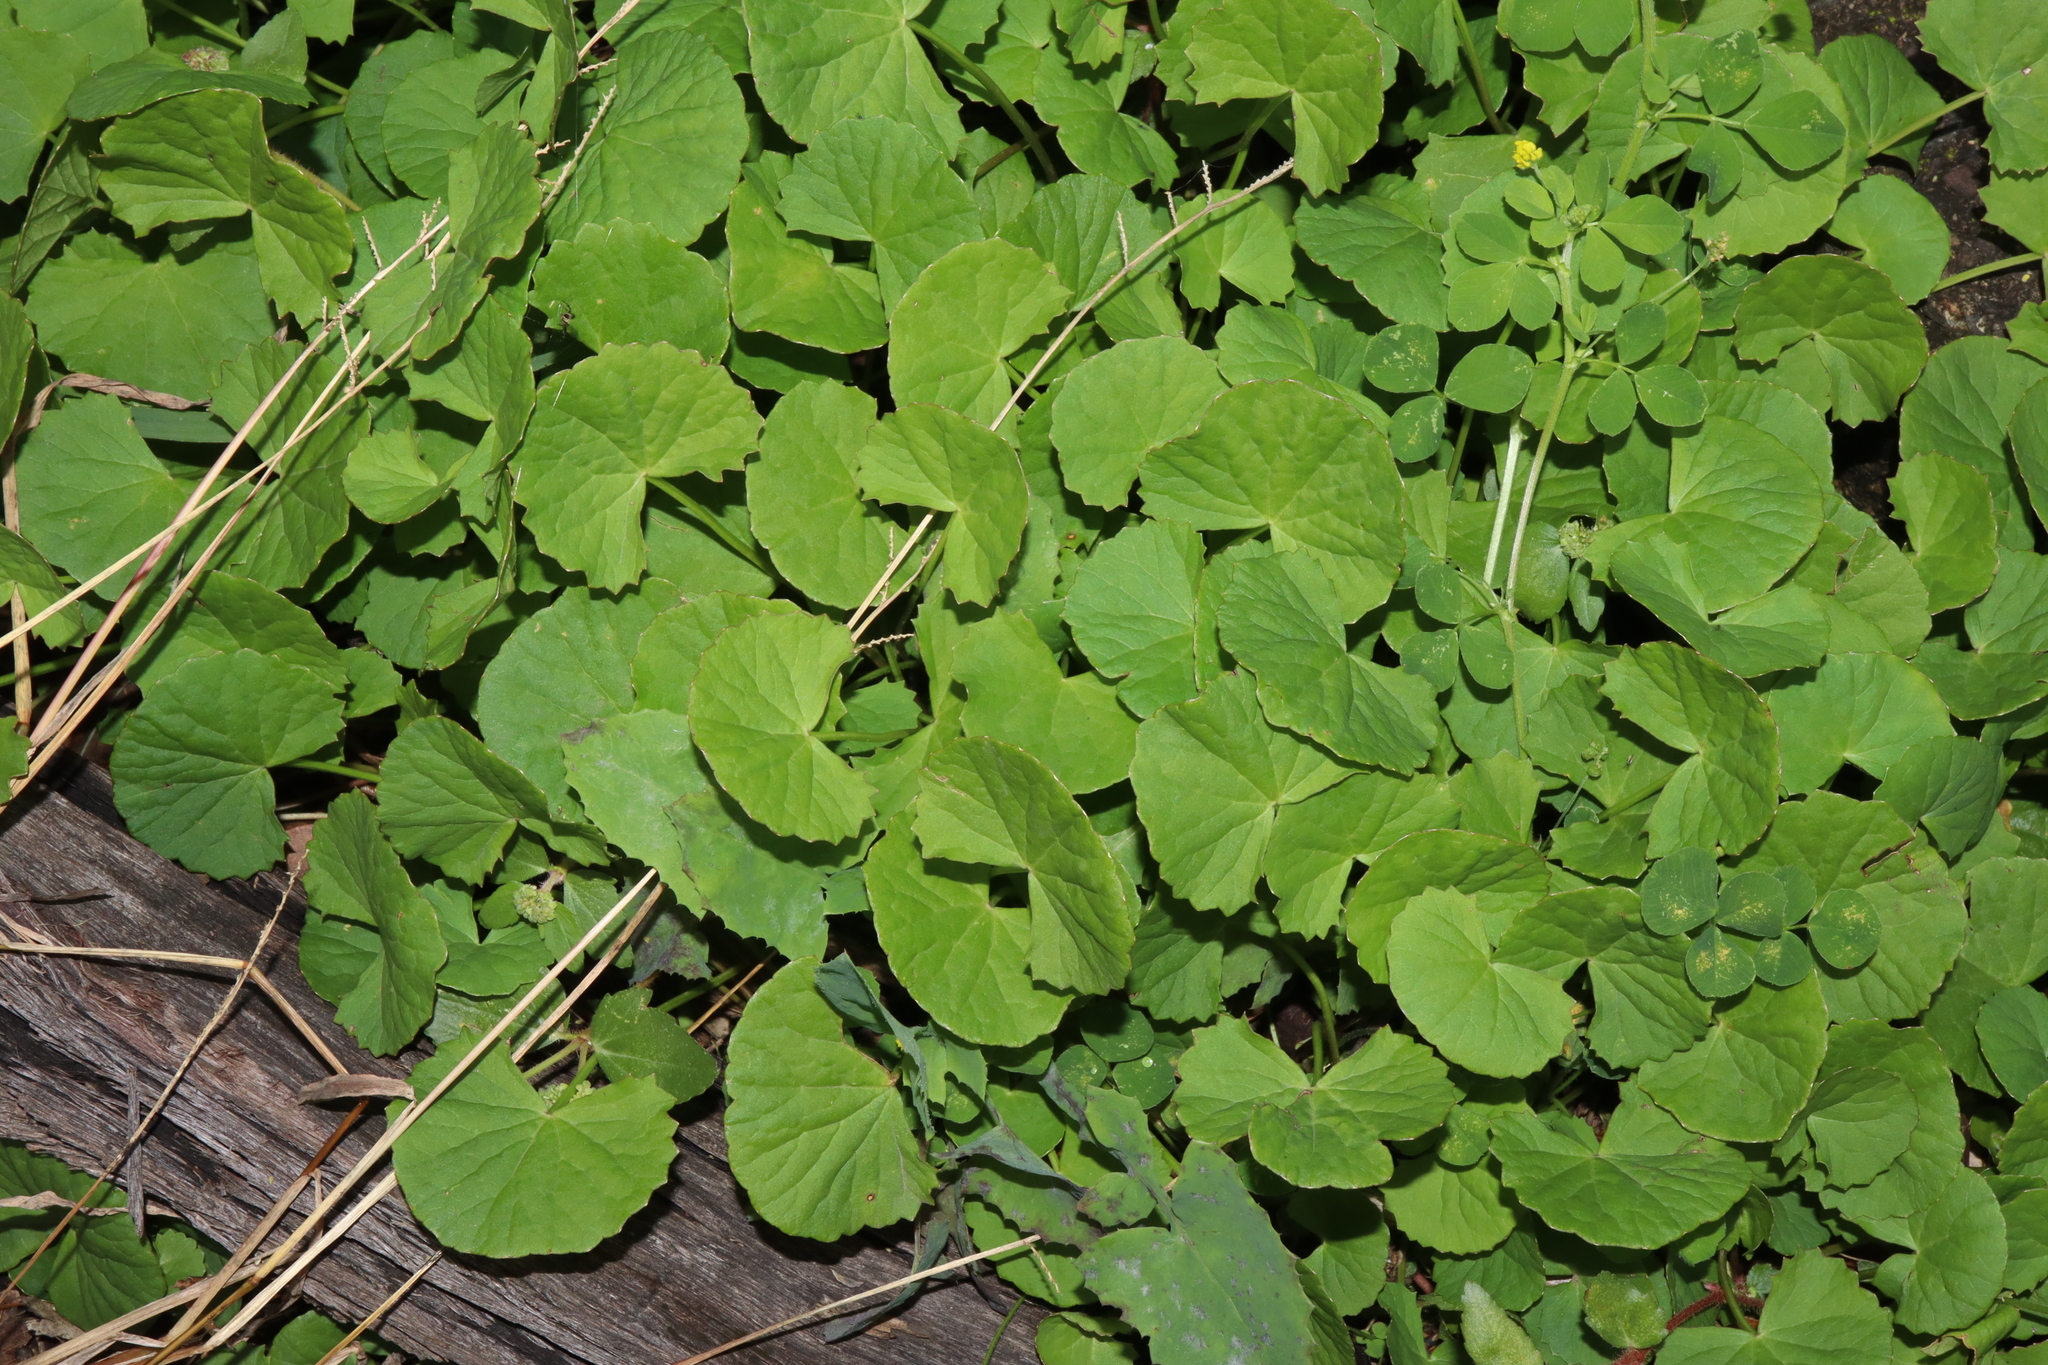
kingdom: Plantae
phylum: Tracheophyta
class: Magnoliopsida
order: Apiales
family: Apiaceae
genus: Centella
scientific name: Centella asiatica
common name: Spadeleaf
